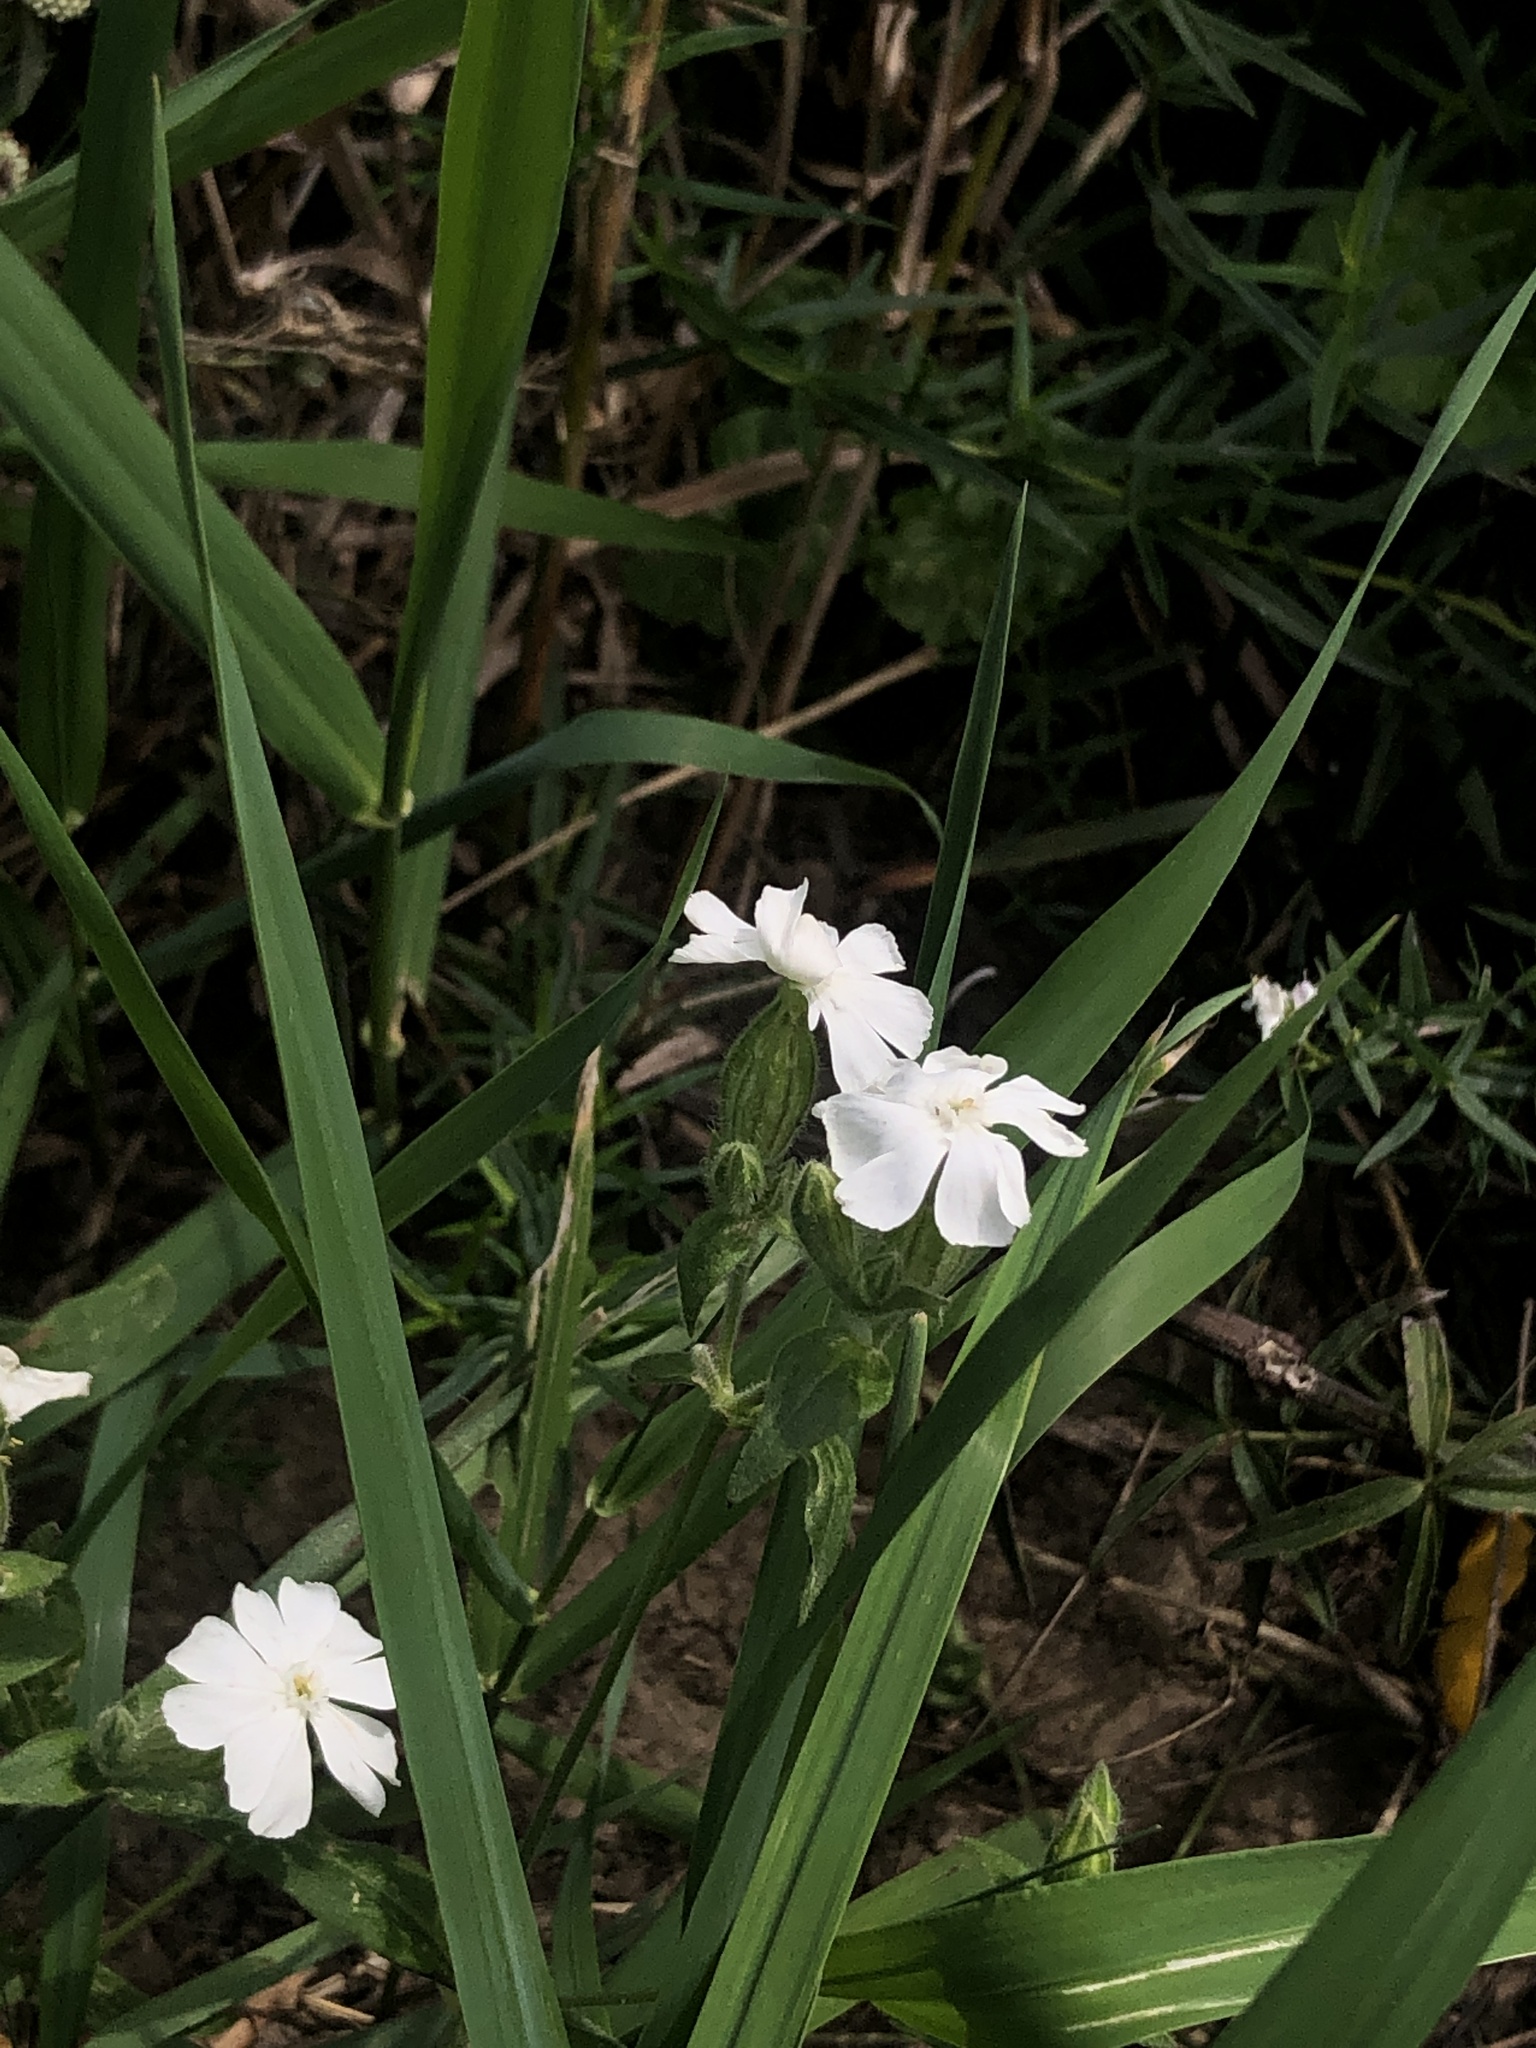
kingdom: Plantae
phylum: Tracheophyta
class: Magnoliopsida
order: Caryophyllales
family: Caryophyllaceae
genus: Silene
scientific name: Silene latifolia
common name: White campion
